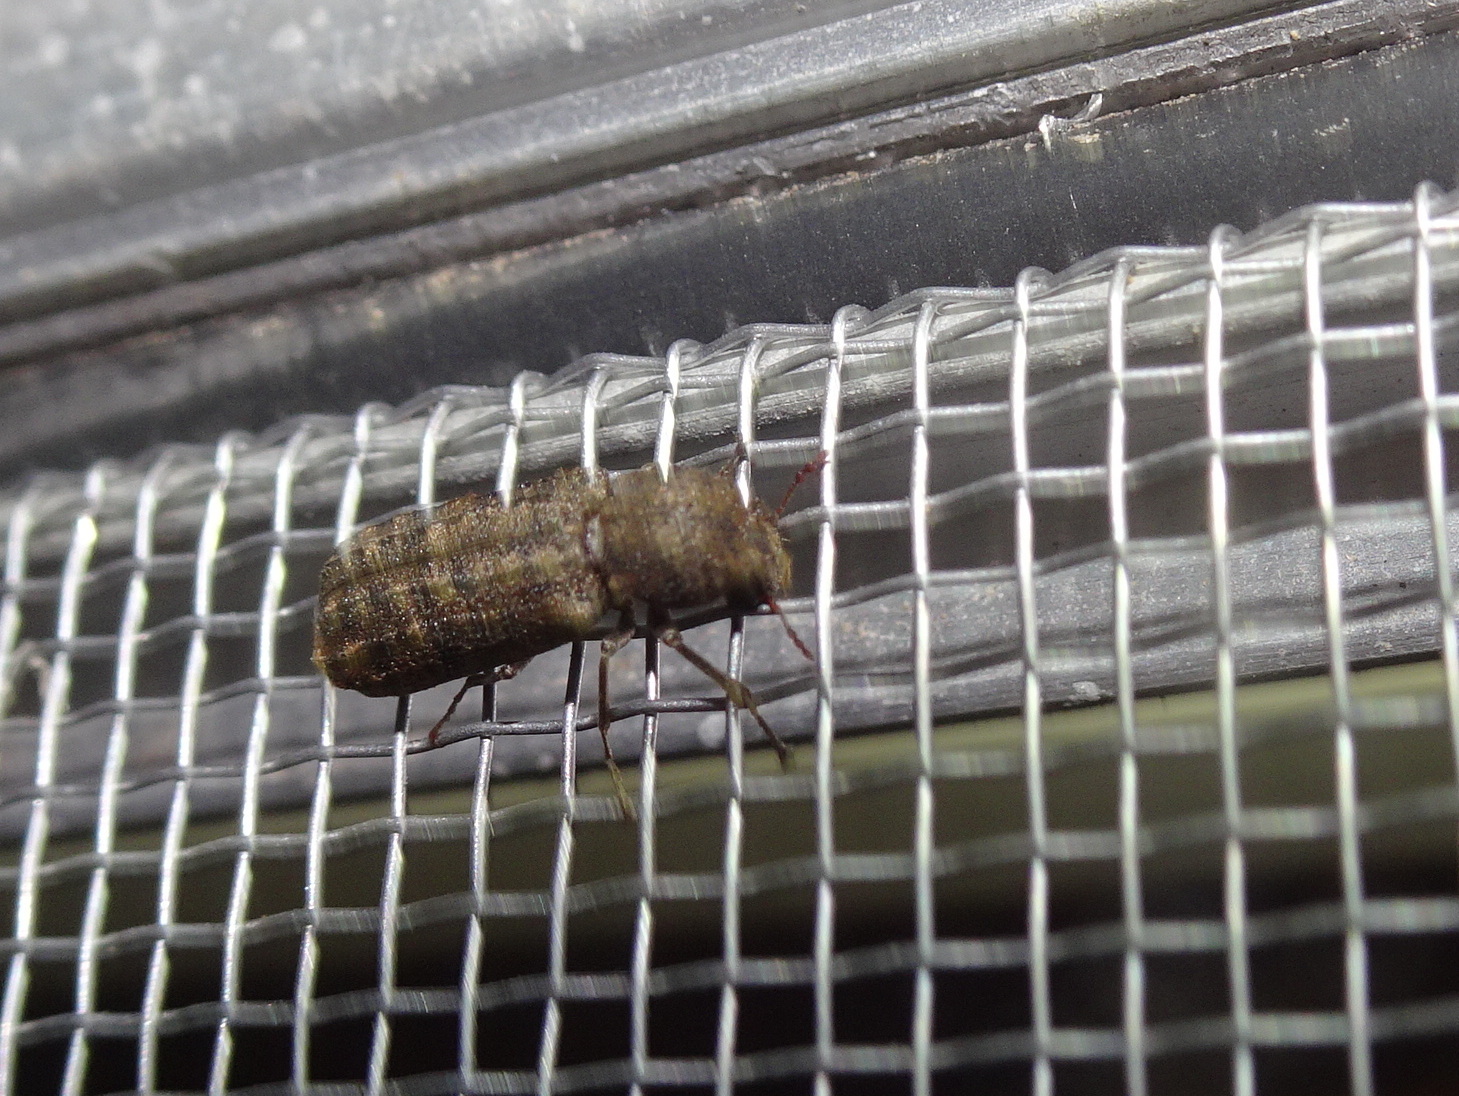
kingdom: Animalia
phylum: Arthropoda
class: Insecta
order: Coleoptera
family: Bostrichidae
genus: Lichenophanes
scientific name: Lichenophanes bicornis
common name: Two-horned powder-post beetle
